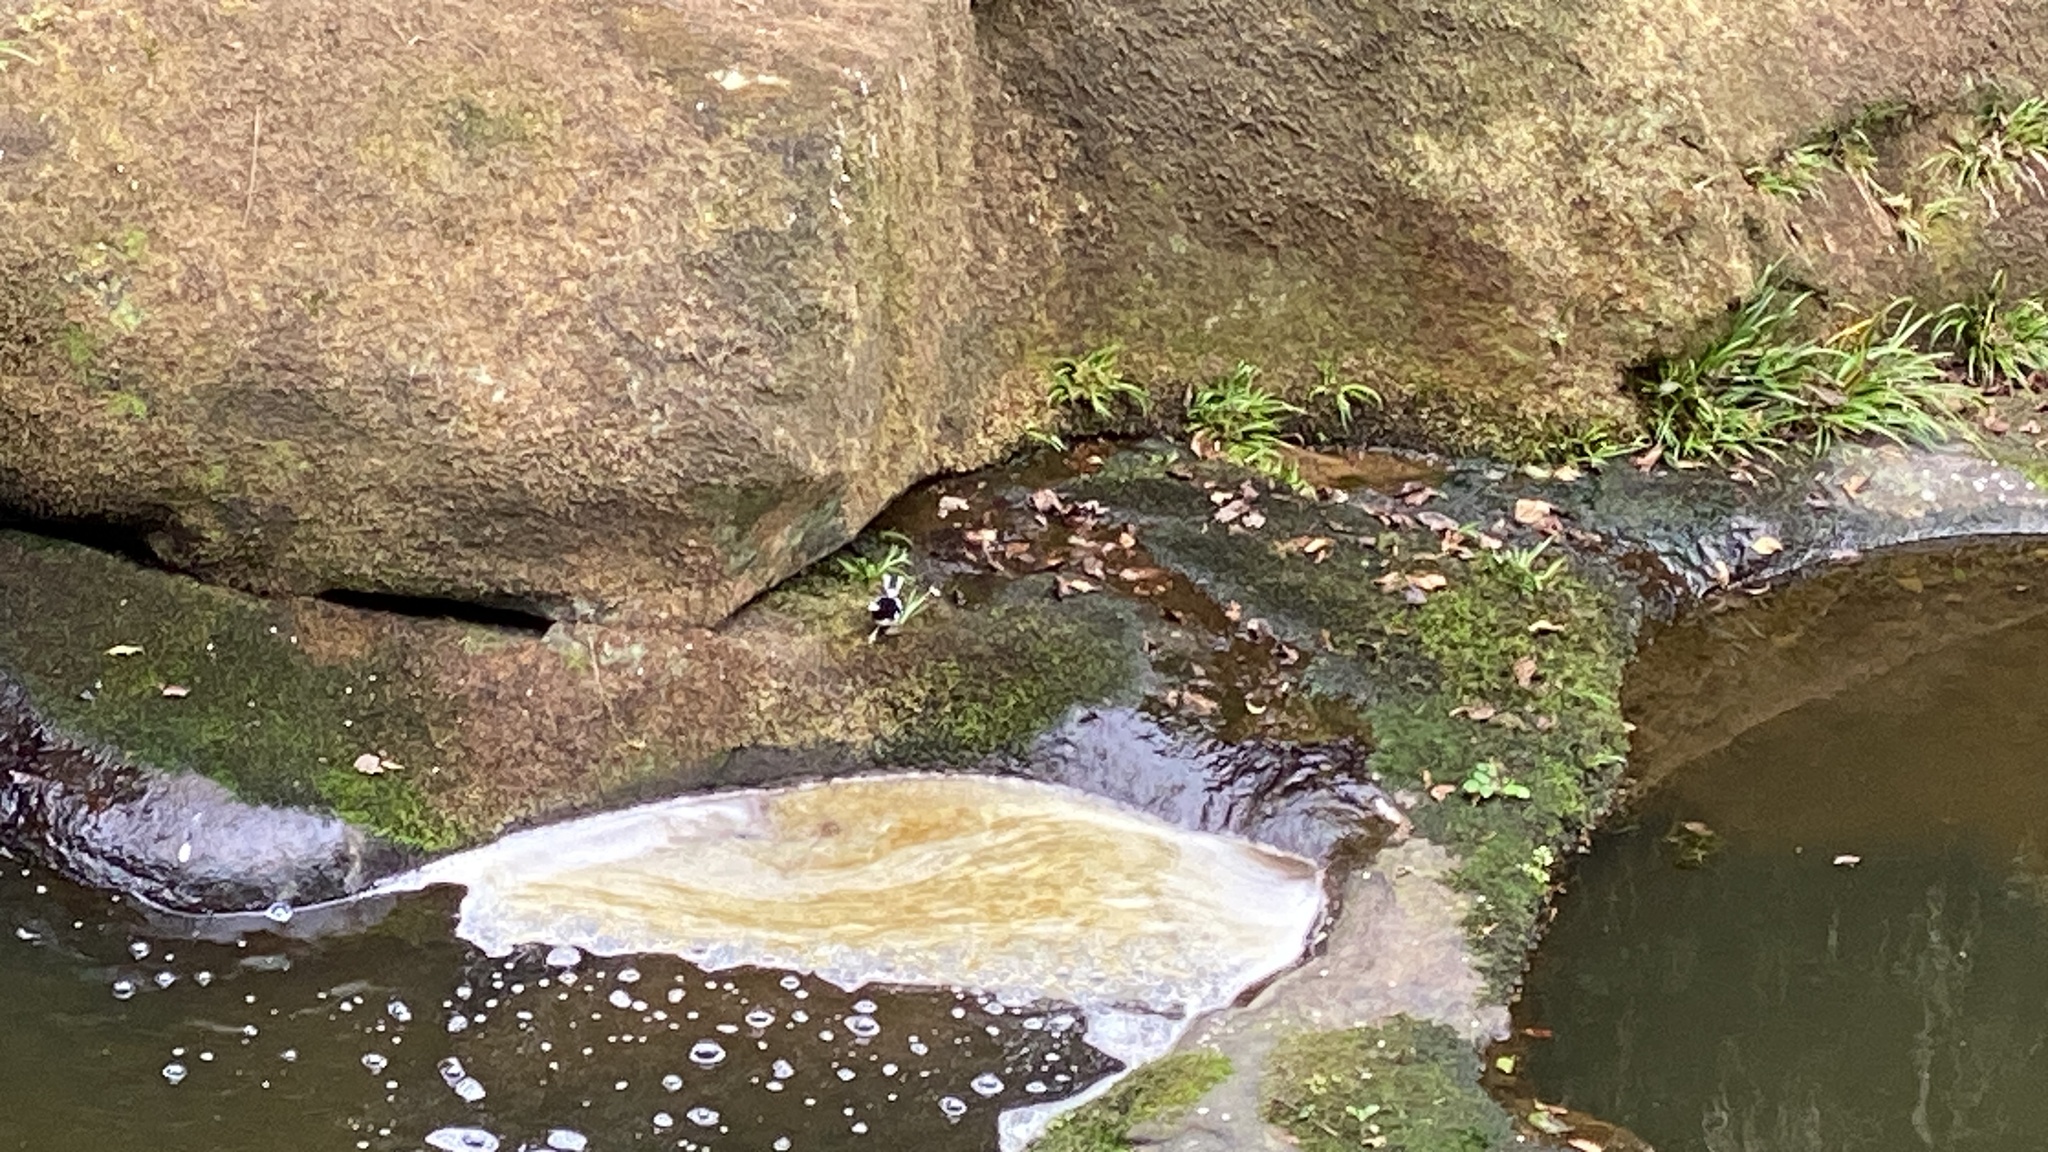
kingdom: Animalia
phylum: Chordata
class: Aves
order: Passeriformes
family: Muscicapidae
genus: Enicurus
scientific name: Enicurus scouleri
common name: Little forktail
